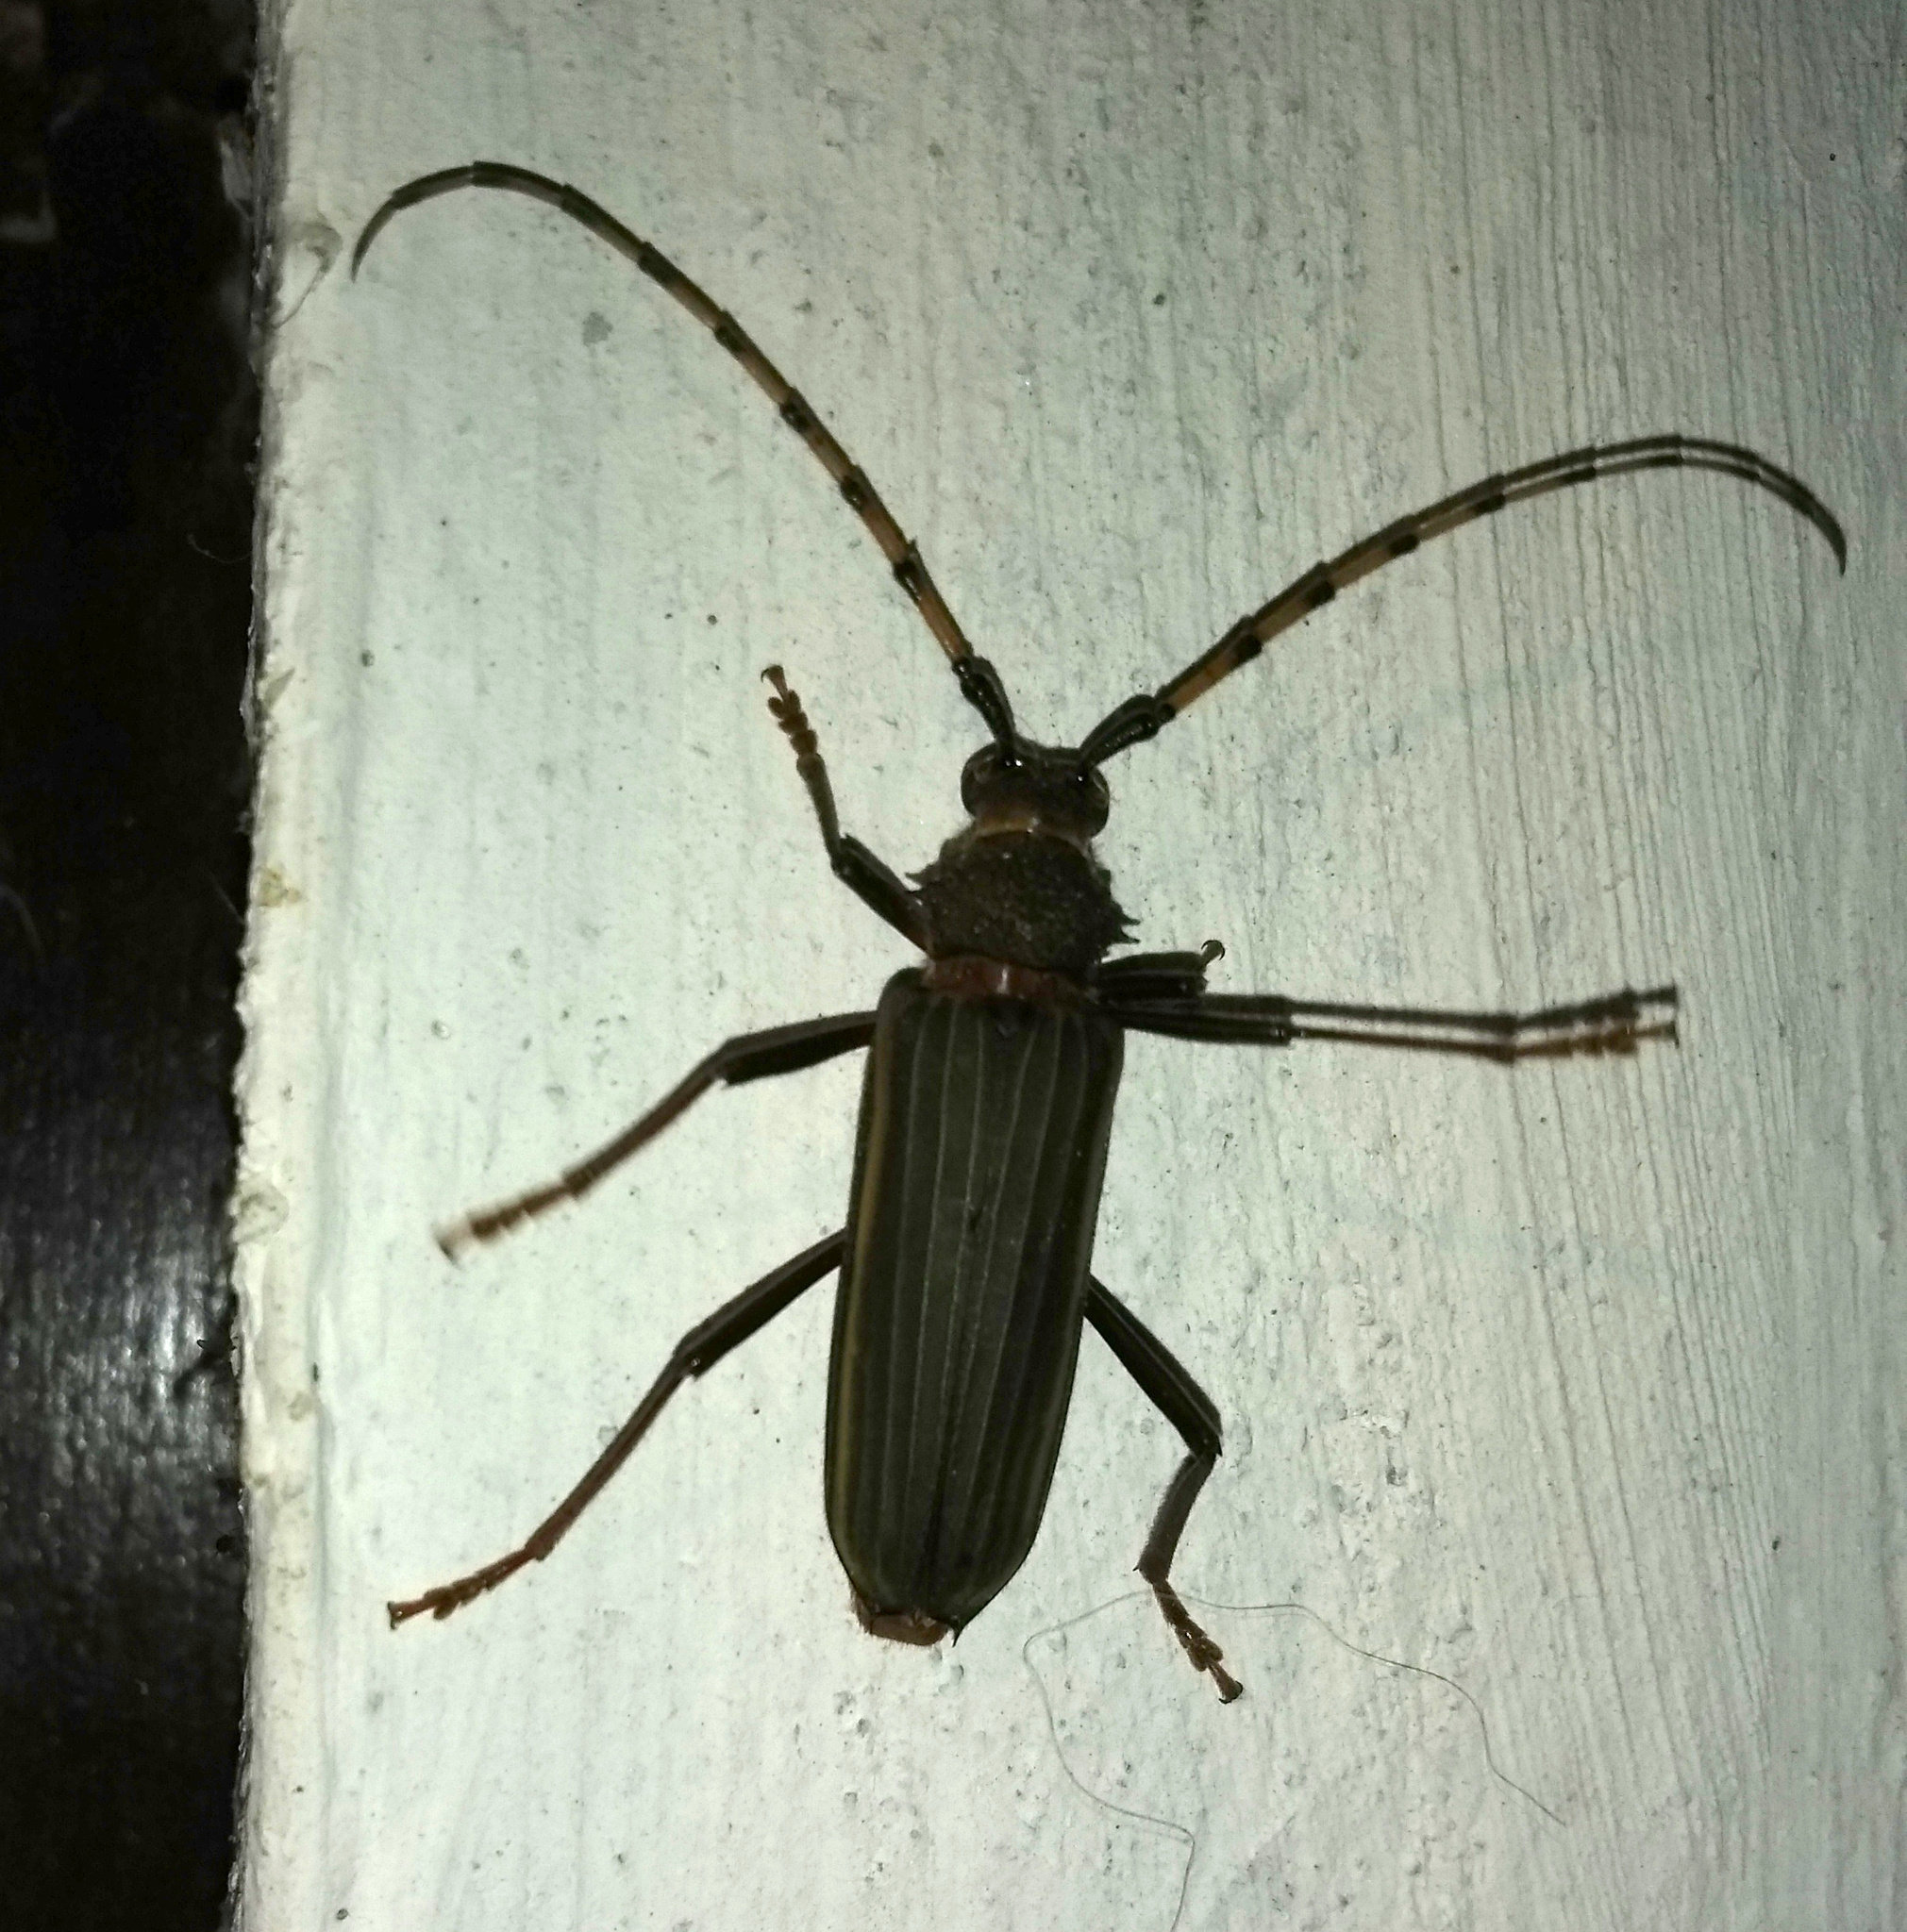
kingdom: Animalia
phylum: Arthropoda
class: Insecta
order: Coleoptera
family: Cerambycidae
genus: Chlorida
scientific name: Chlorida costata
